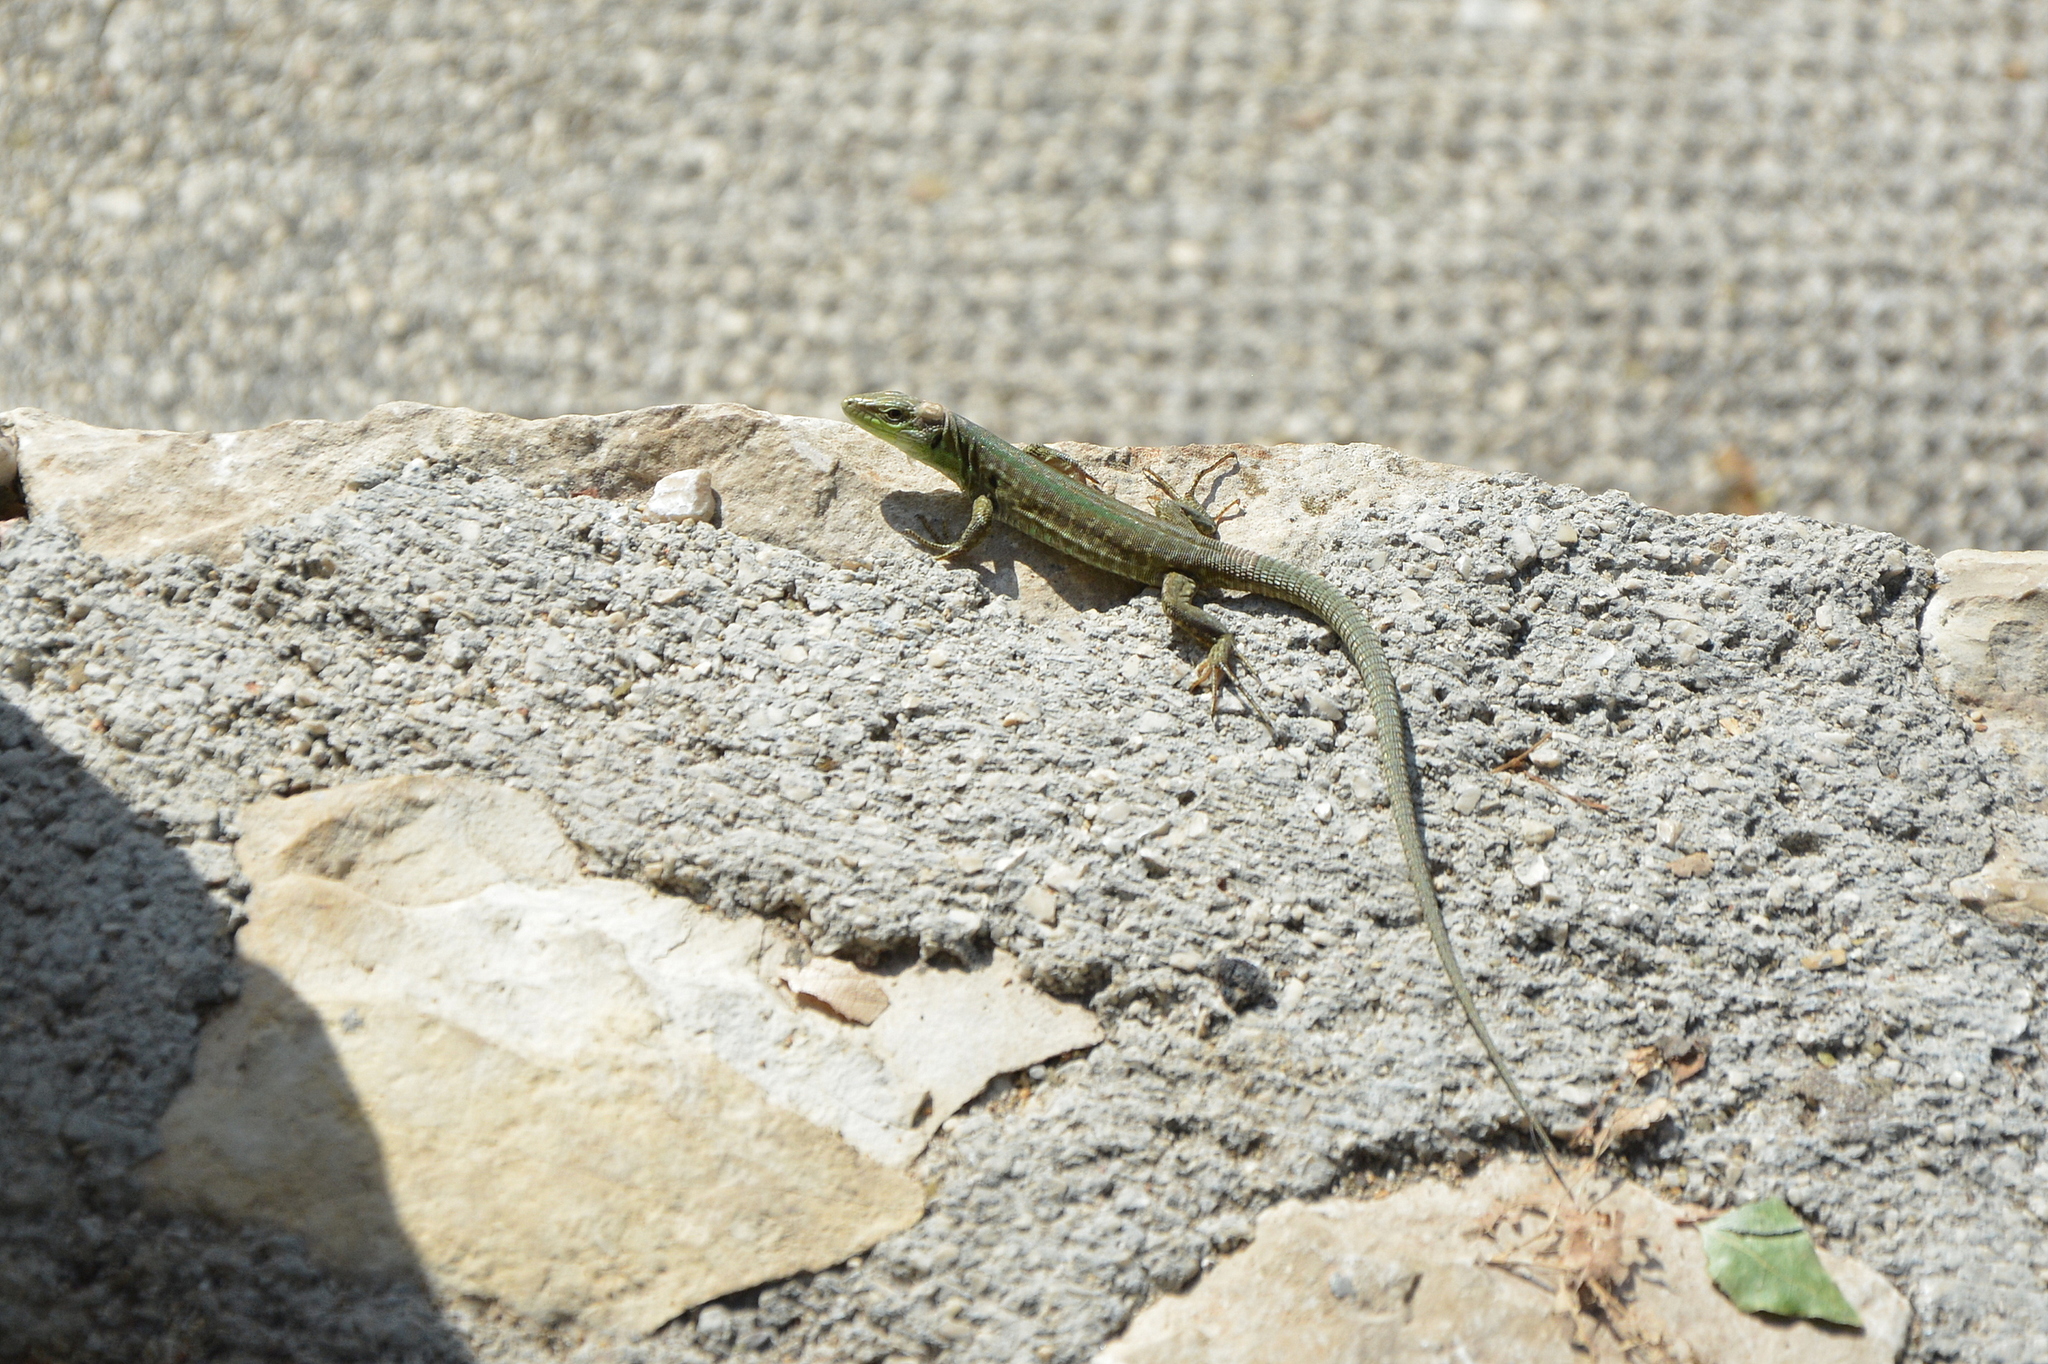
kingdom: Animalia
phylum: Chordata
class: Squamata
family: Lacertidae
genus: Podarcis
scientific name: Podarcis siculus
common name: Italian wall lizard
